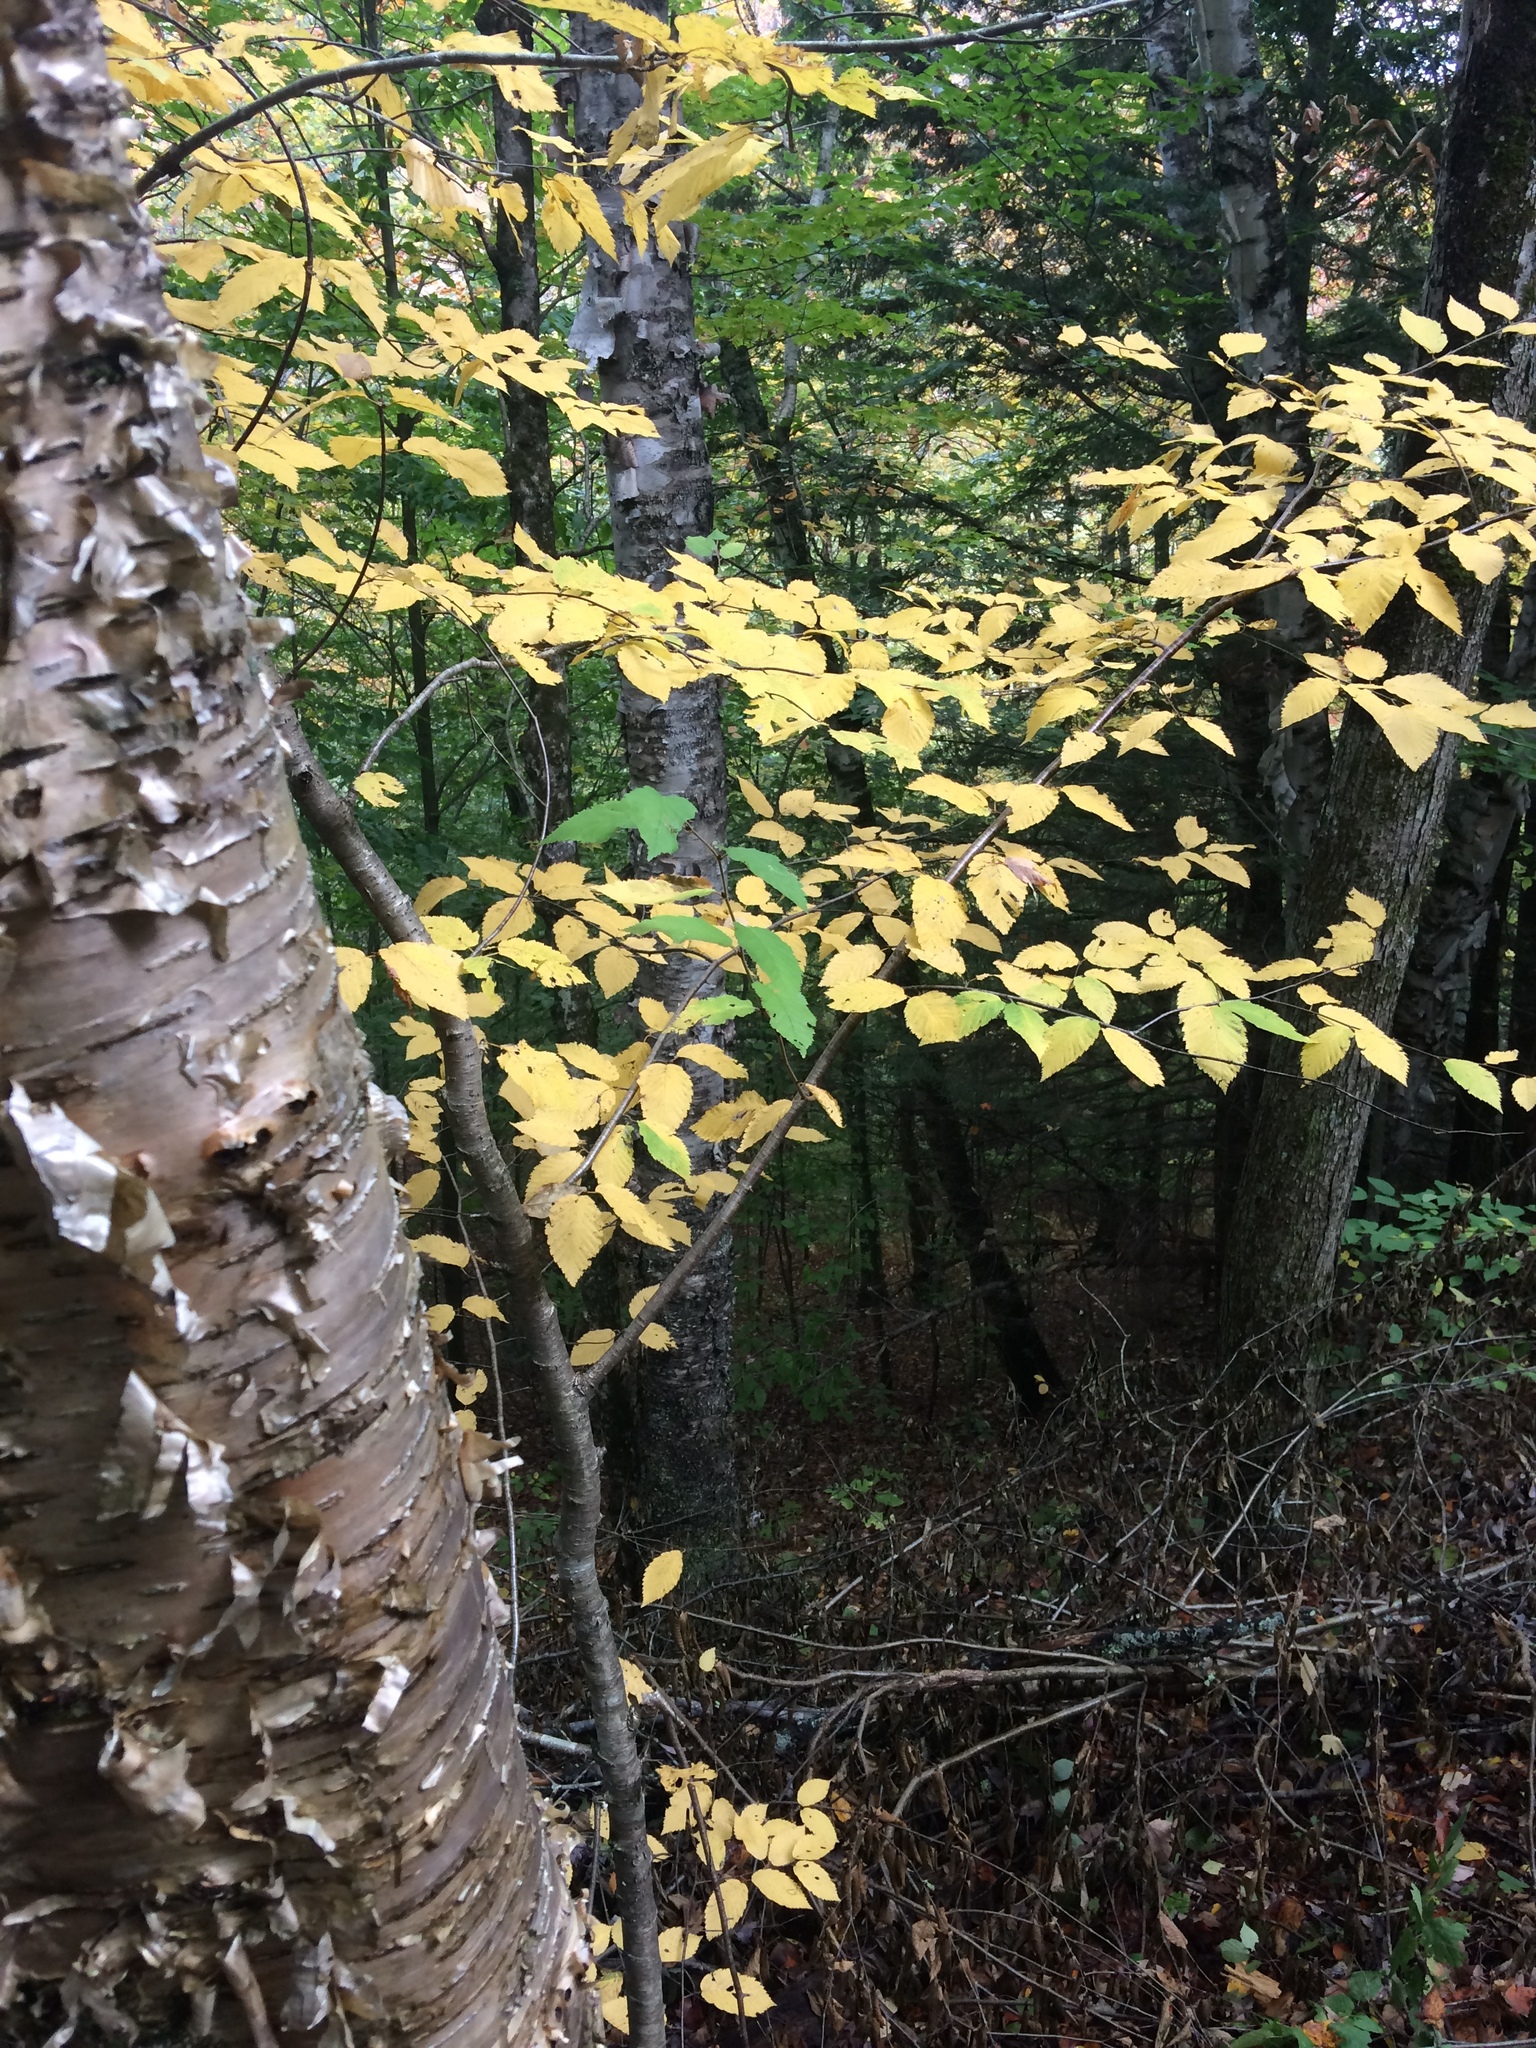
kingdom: Plantae
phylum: Tracheophyta
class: Magnoliopsida
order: Fagales
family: Betulaceae
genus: Betula
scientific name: Betula alleghaniensis
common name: Yellow birch
